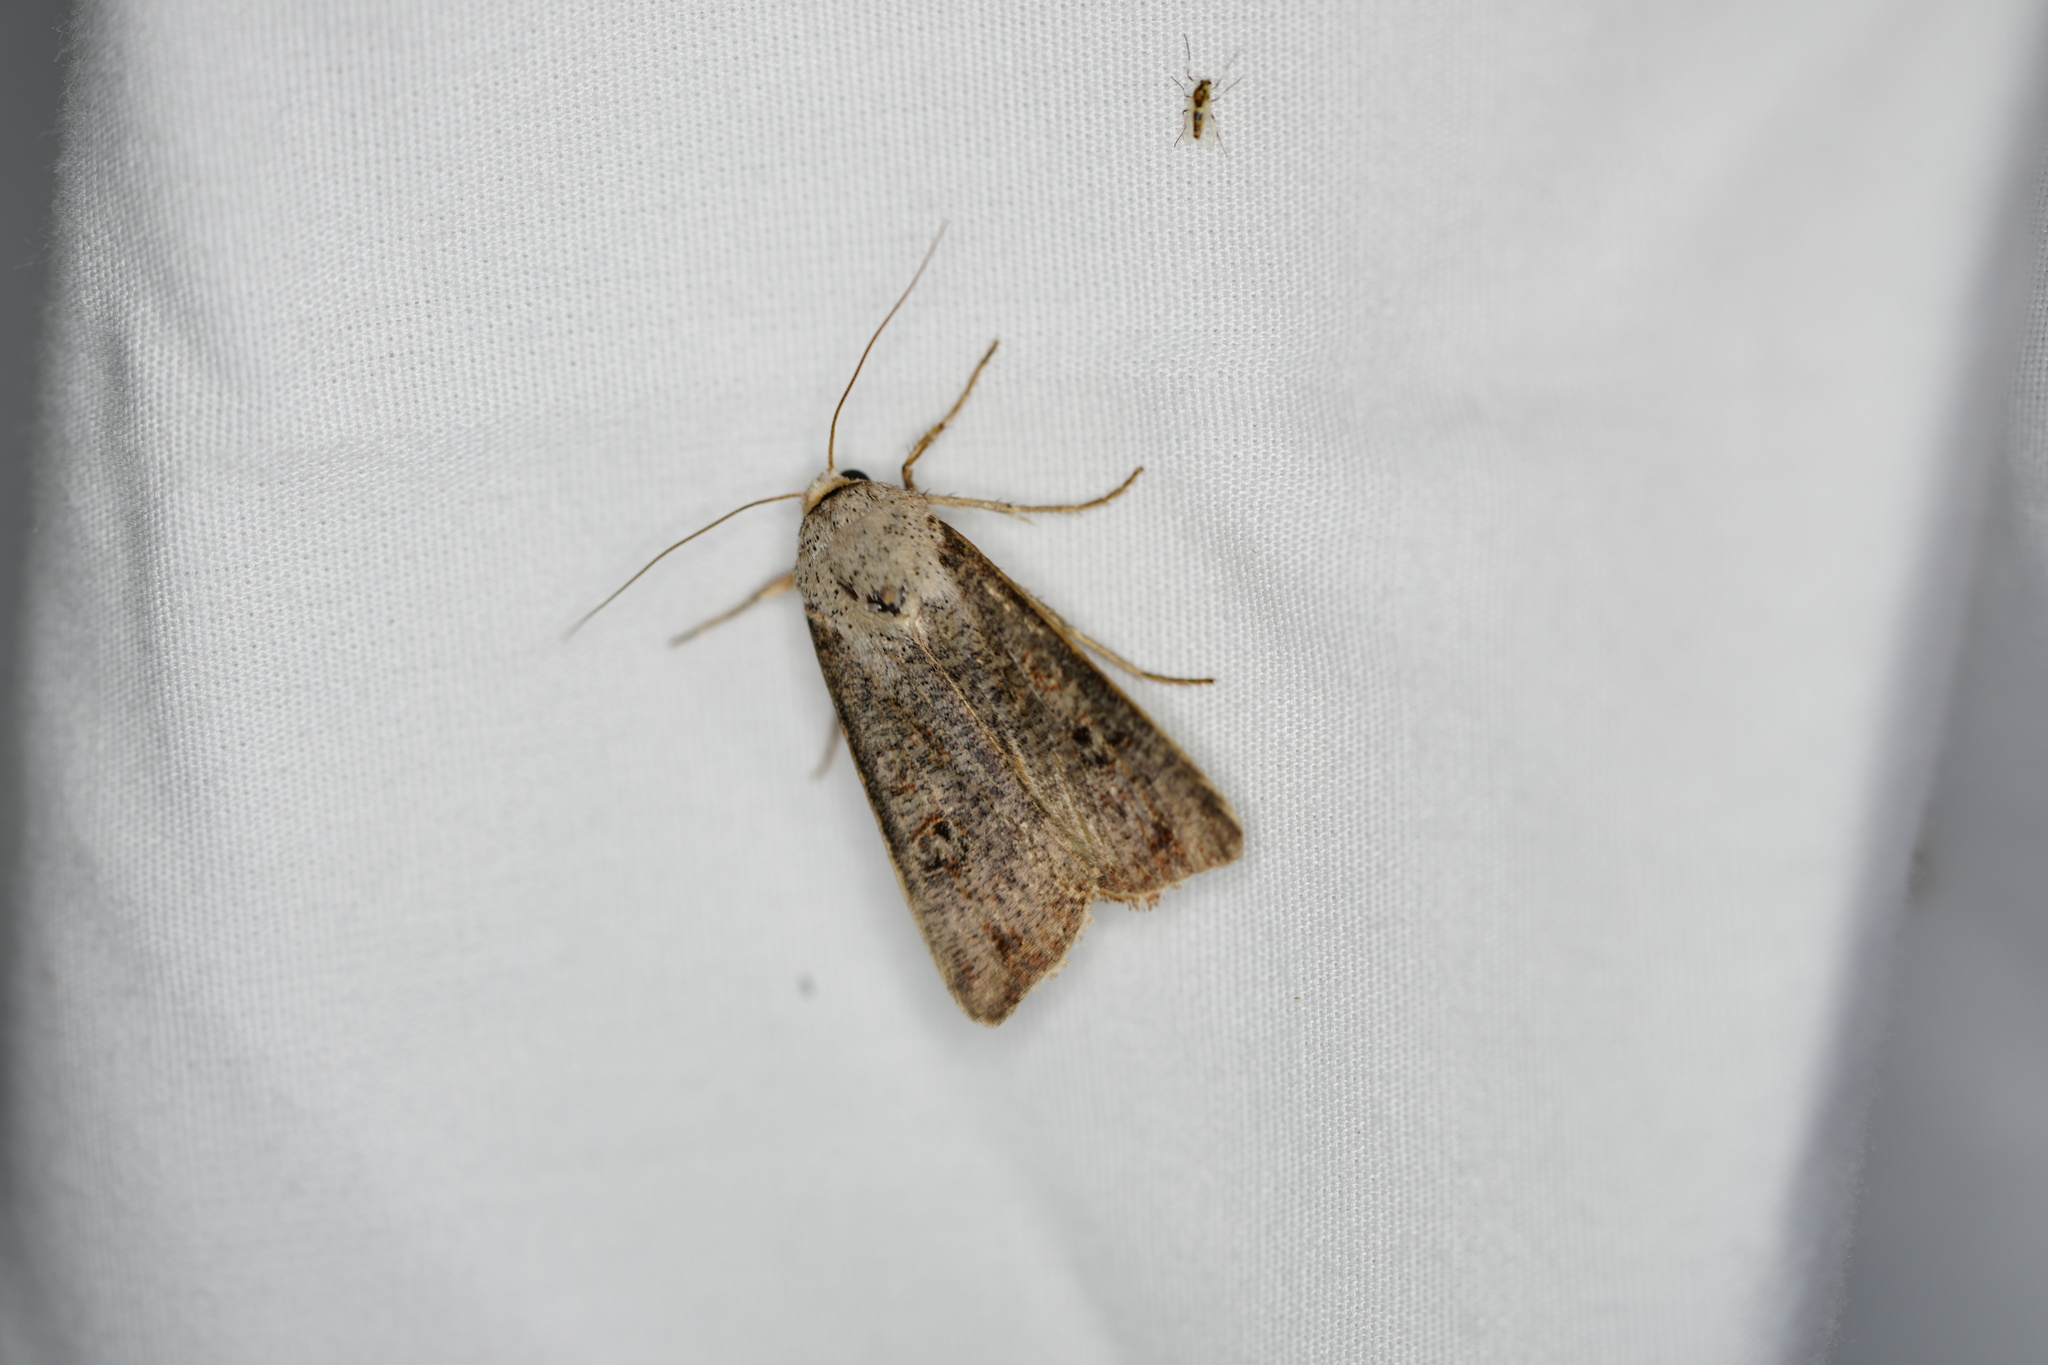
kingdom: Animalia
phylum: Arthropoda
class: Insecta
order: Lepidoptera
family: Noctuidae
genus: Anicla
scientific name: Anicla infecta
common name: Green cutworm
